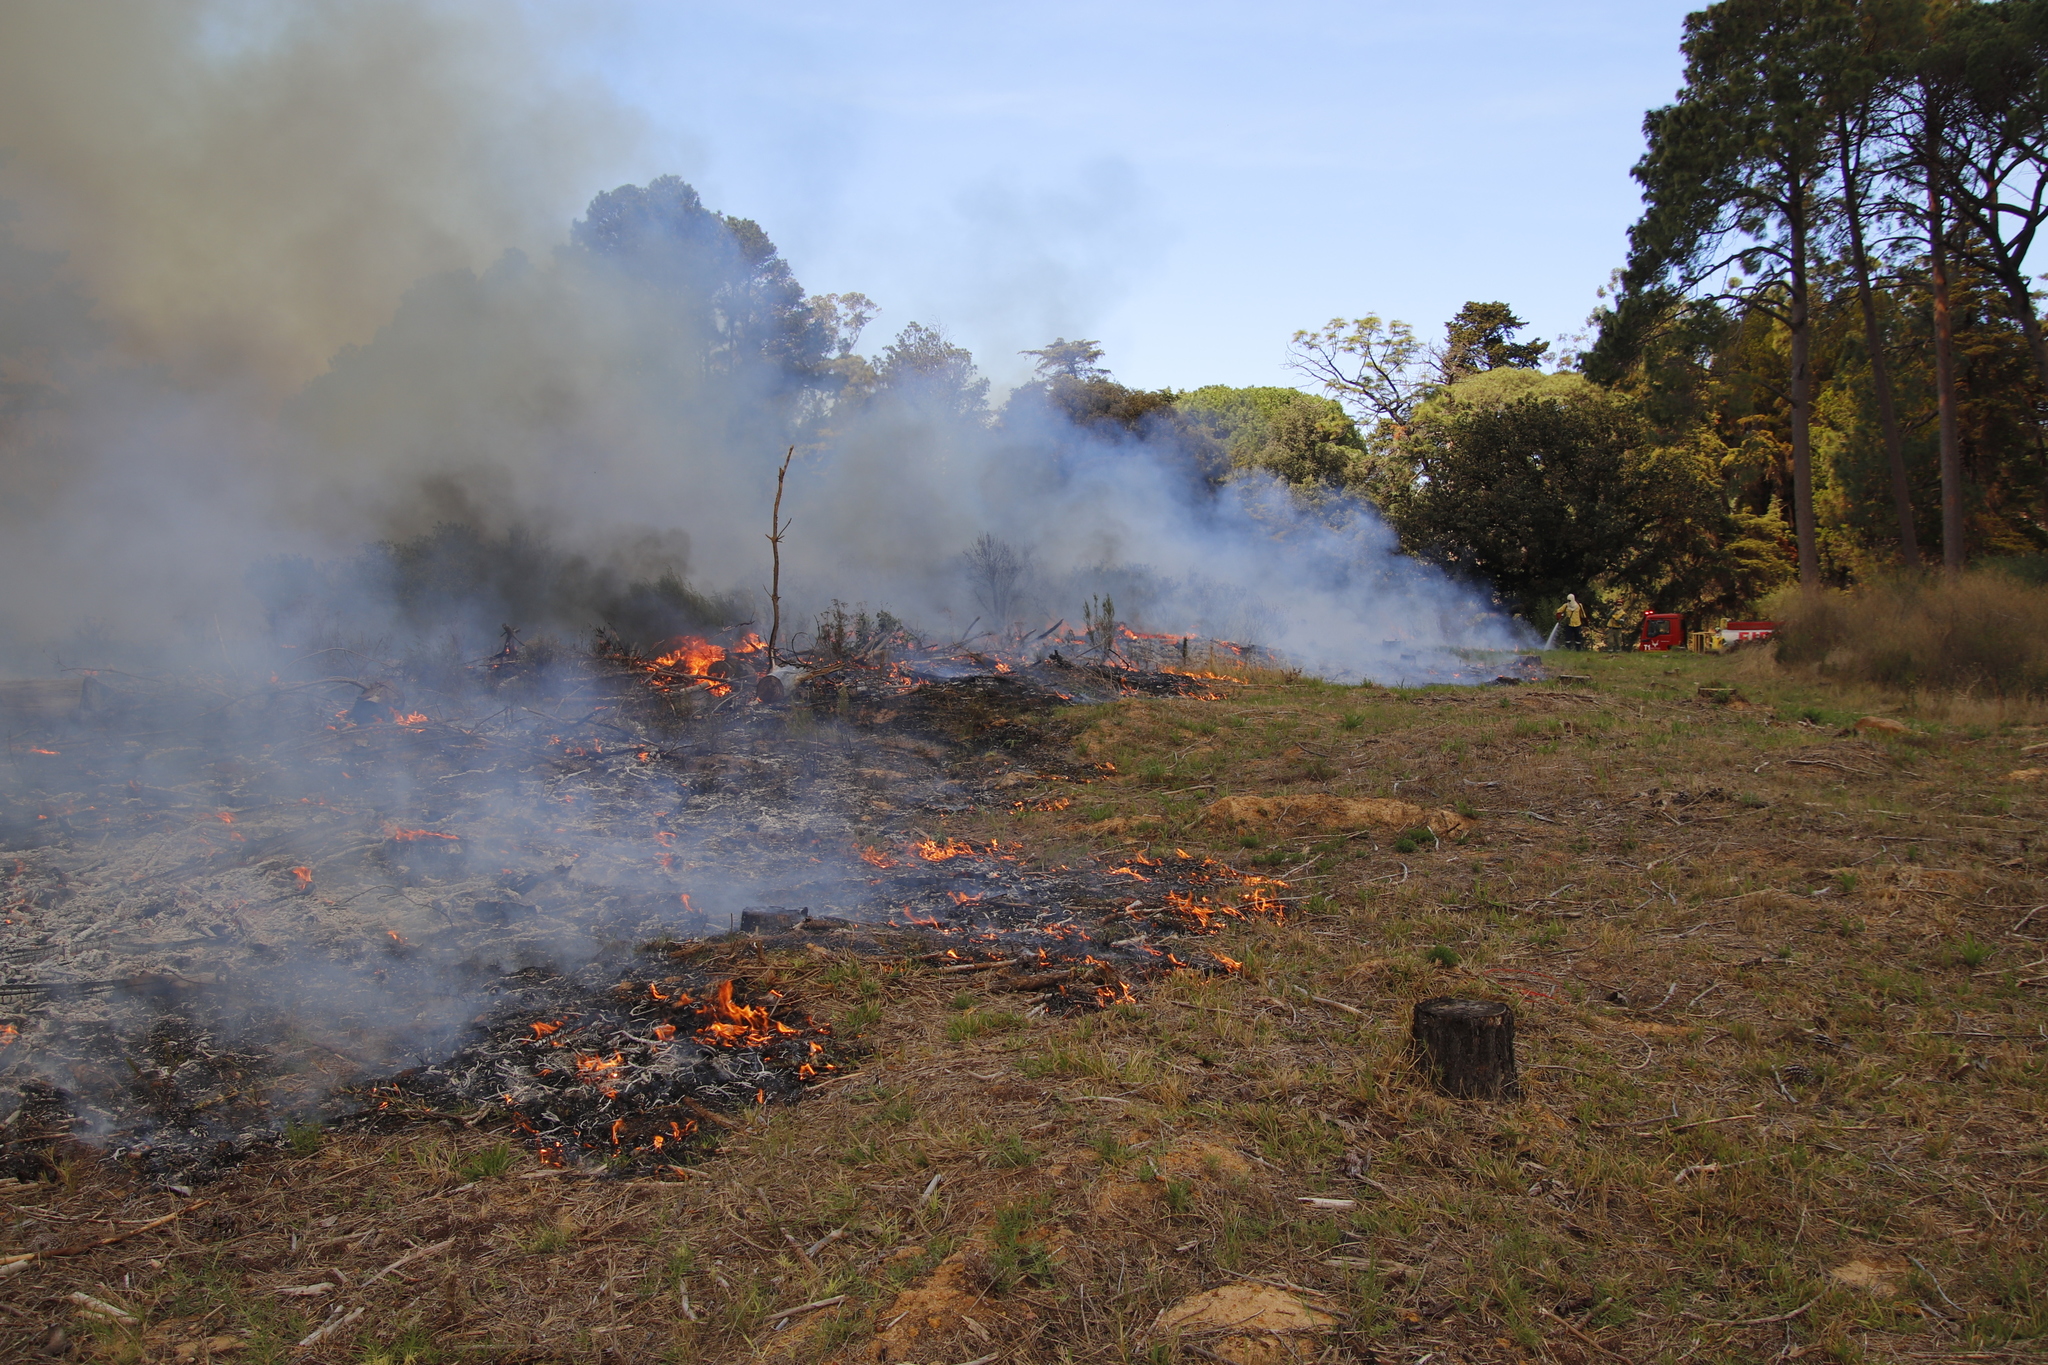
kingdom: Plantae
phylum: Tracheophyta
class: Liliopsida
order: Poales
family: Poaceae
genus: Cynodon
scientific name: Cynodon dactylon
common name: Bermuda grass
